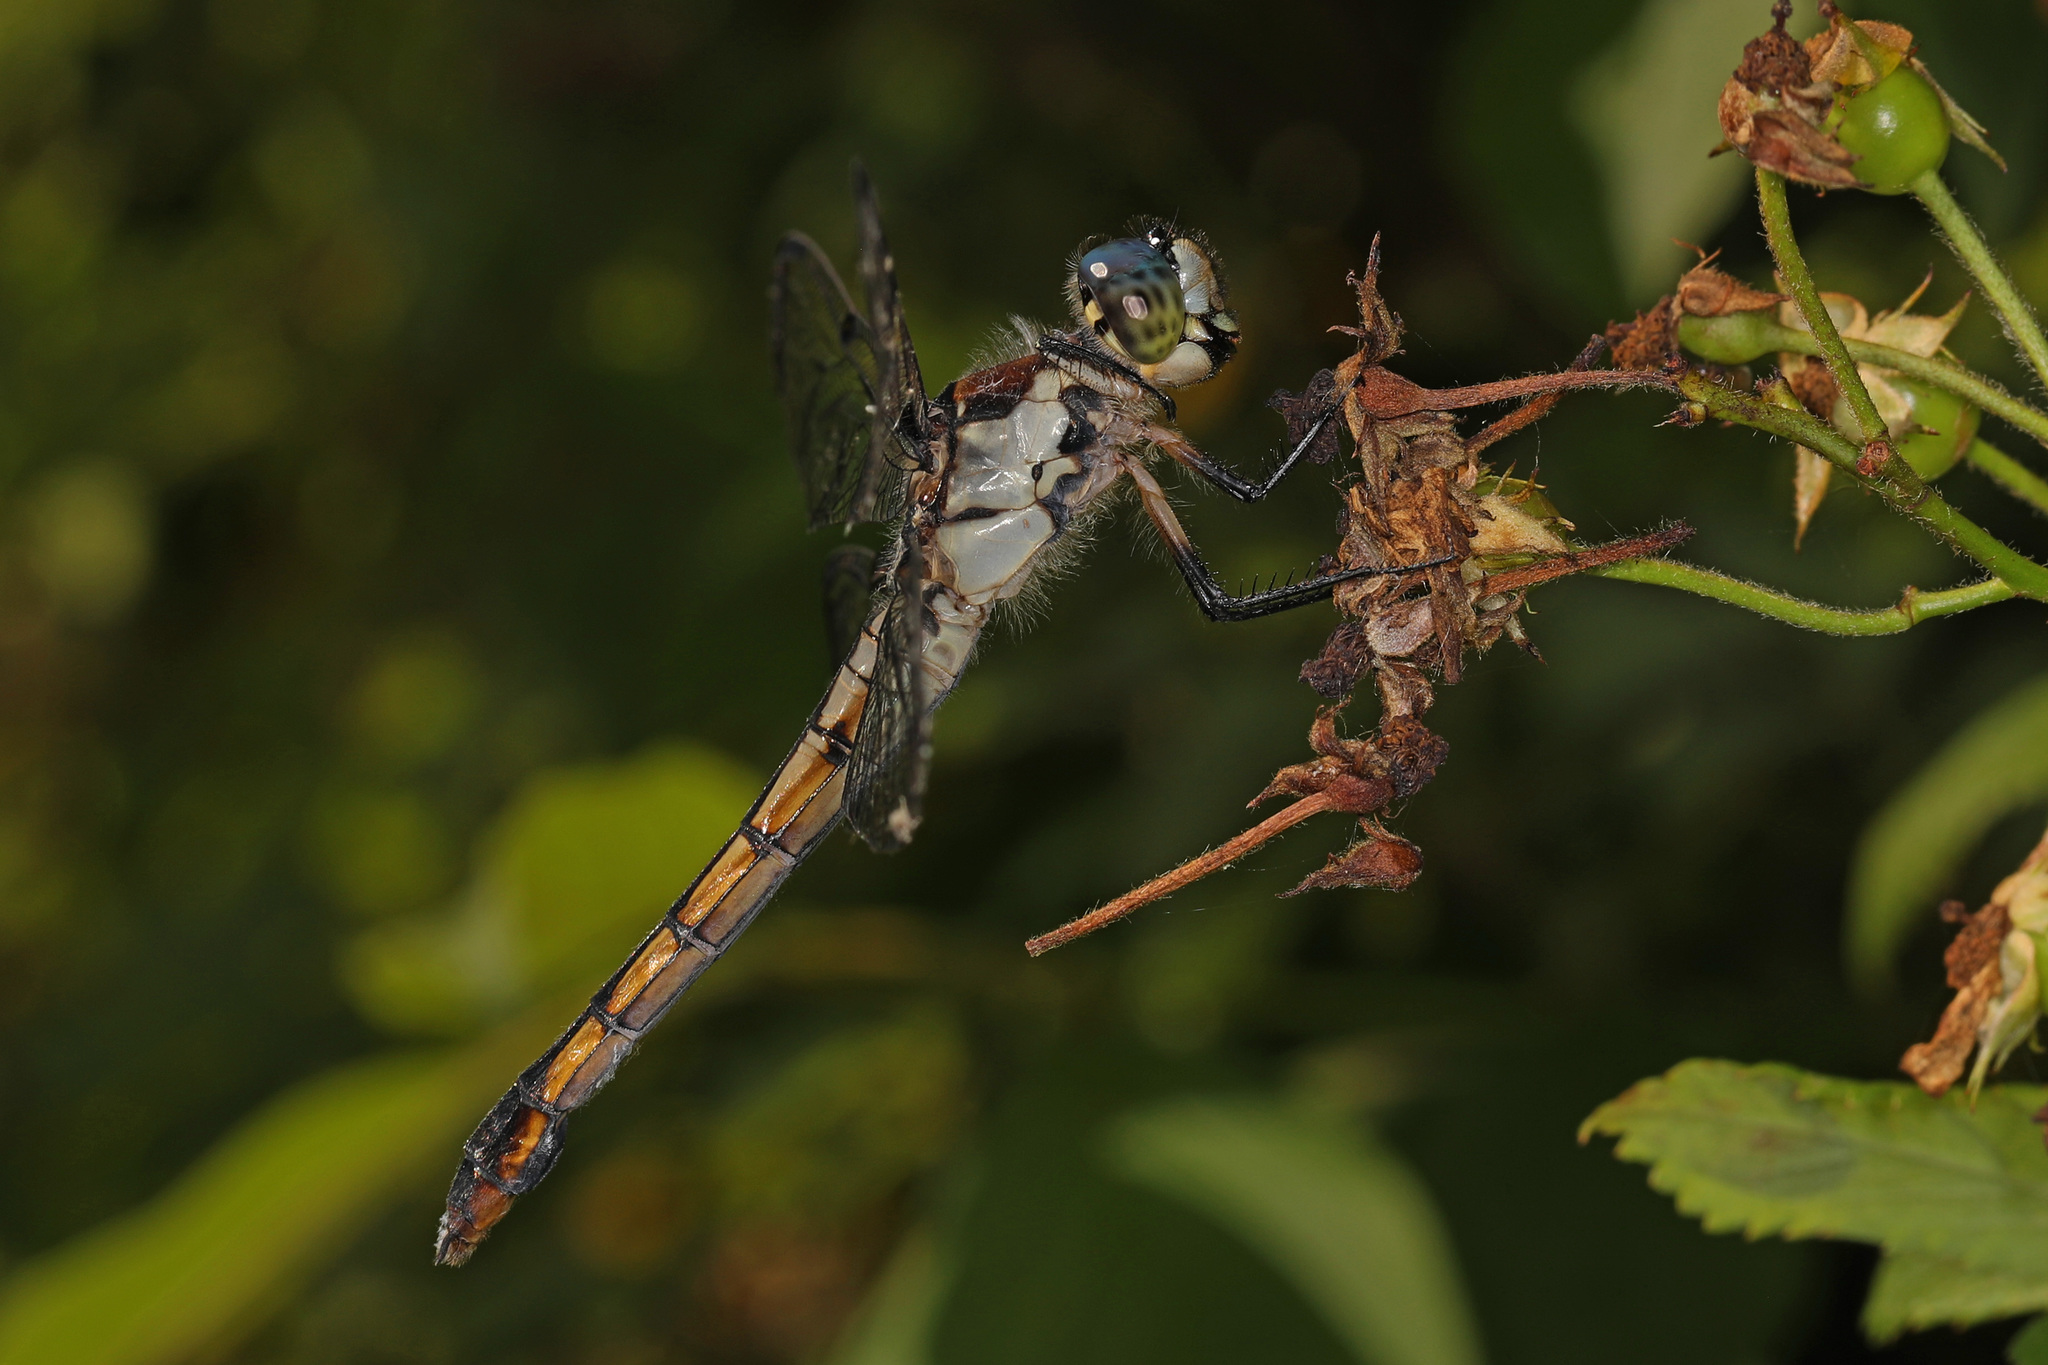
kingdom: Animalia
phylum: Arthropoda
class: Insecta
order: Odonata
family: Libellulidae
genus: Libellula
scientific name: Libellula vibrans
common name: Great blue skimmer
